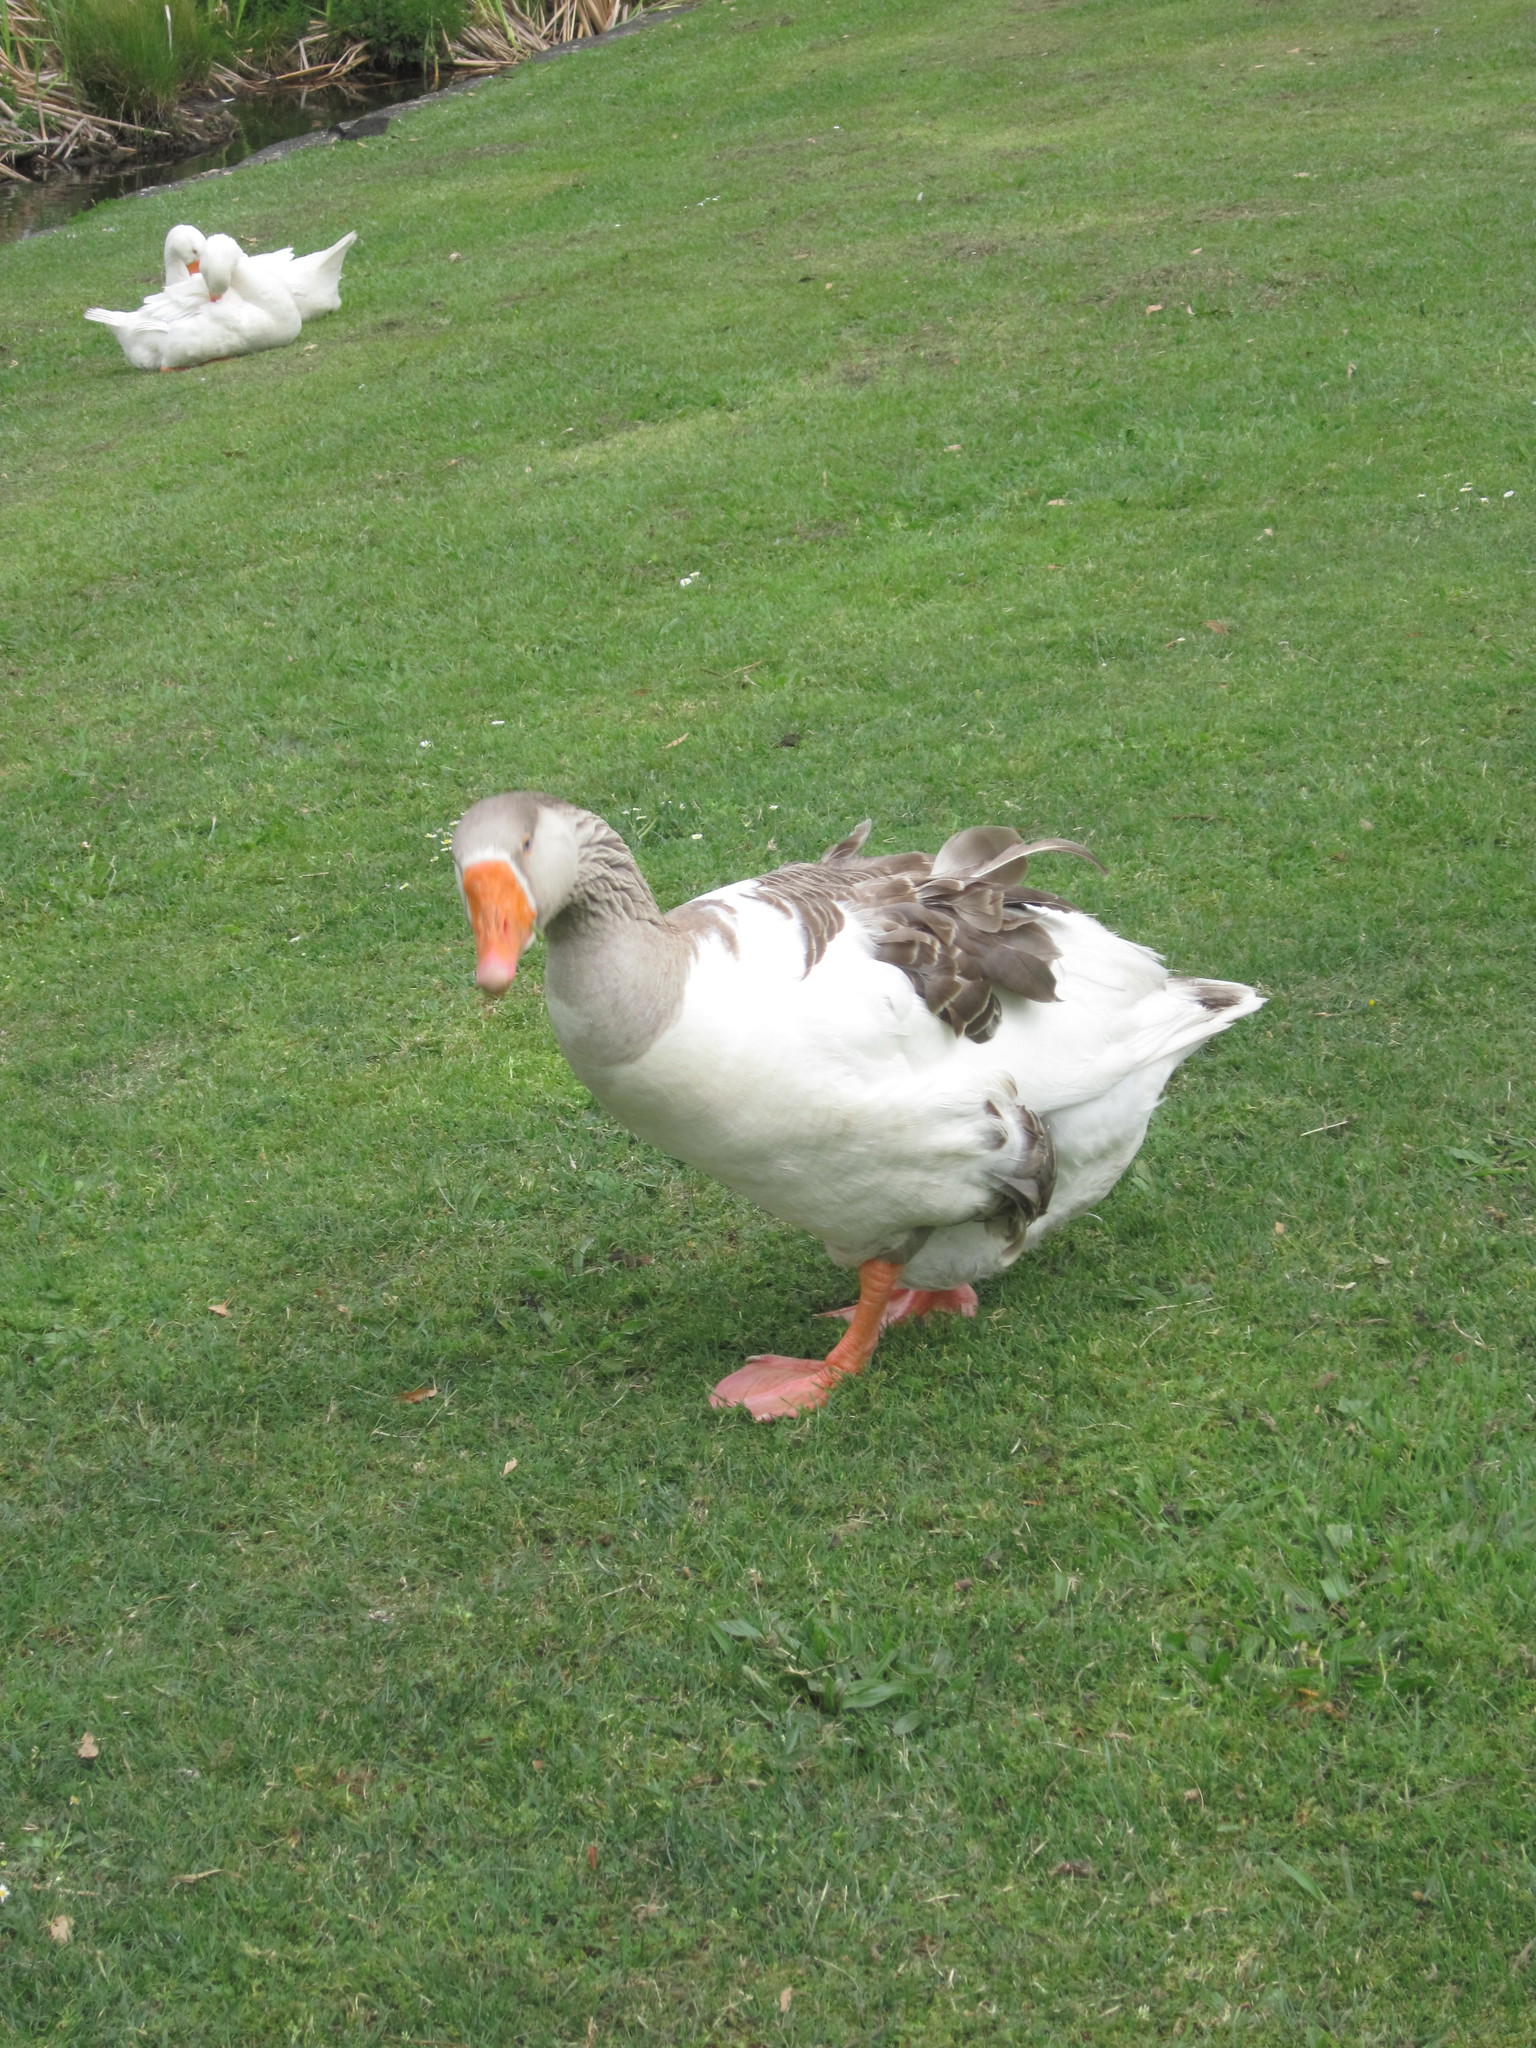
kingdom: Animalia
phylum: Chordata
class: Aves
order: Anseriformes
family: Anatidae
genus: Anser
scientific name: Anser
